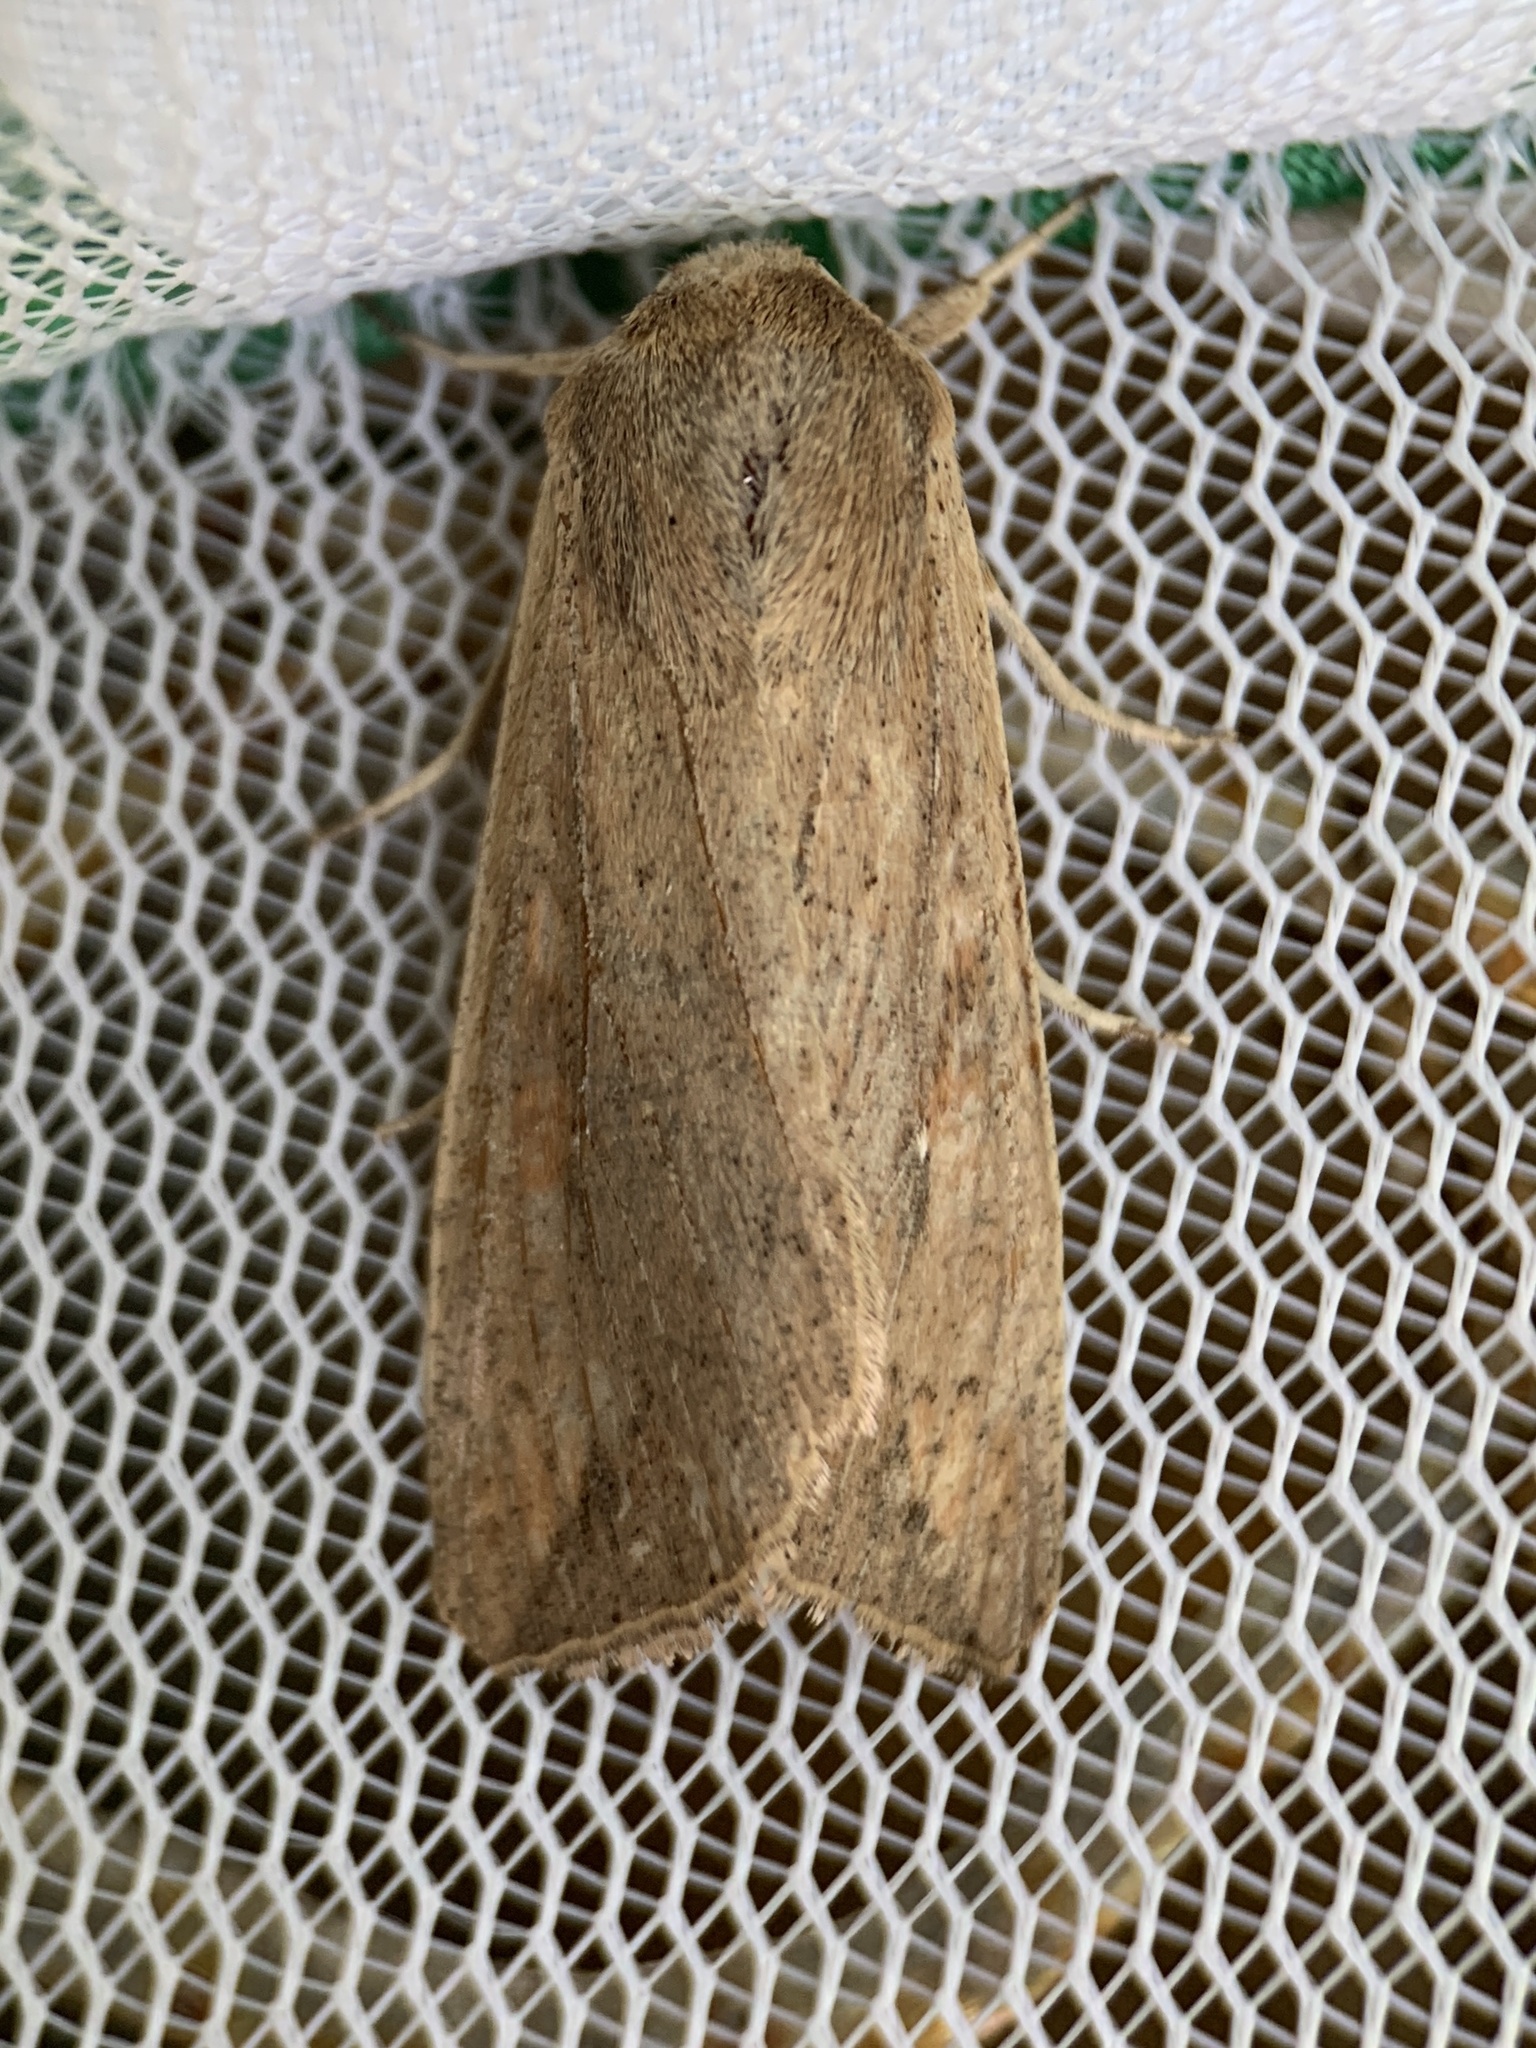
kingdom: Animalia
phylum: Arthropoda
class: Insecta
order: Lepidoptera
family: Noctuidae
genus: Mythimna
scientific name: Mythimna unipuncta
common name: White-speck
